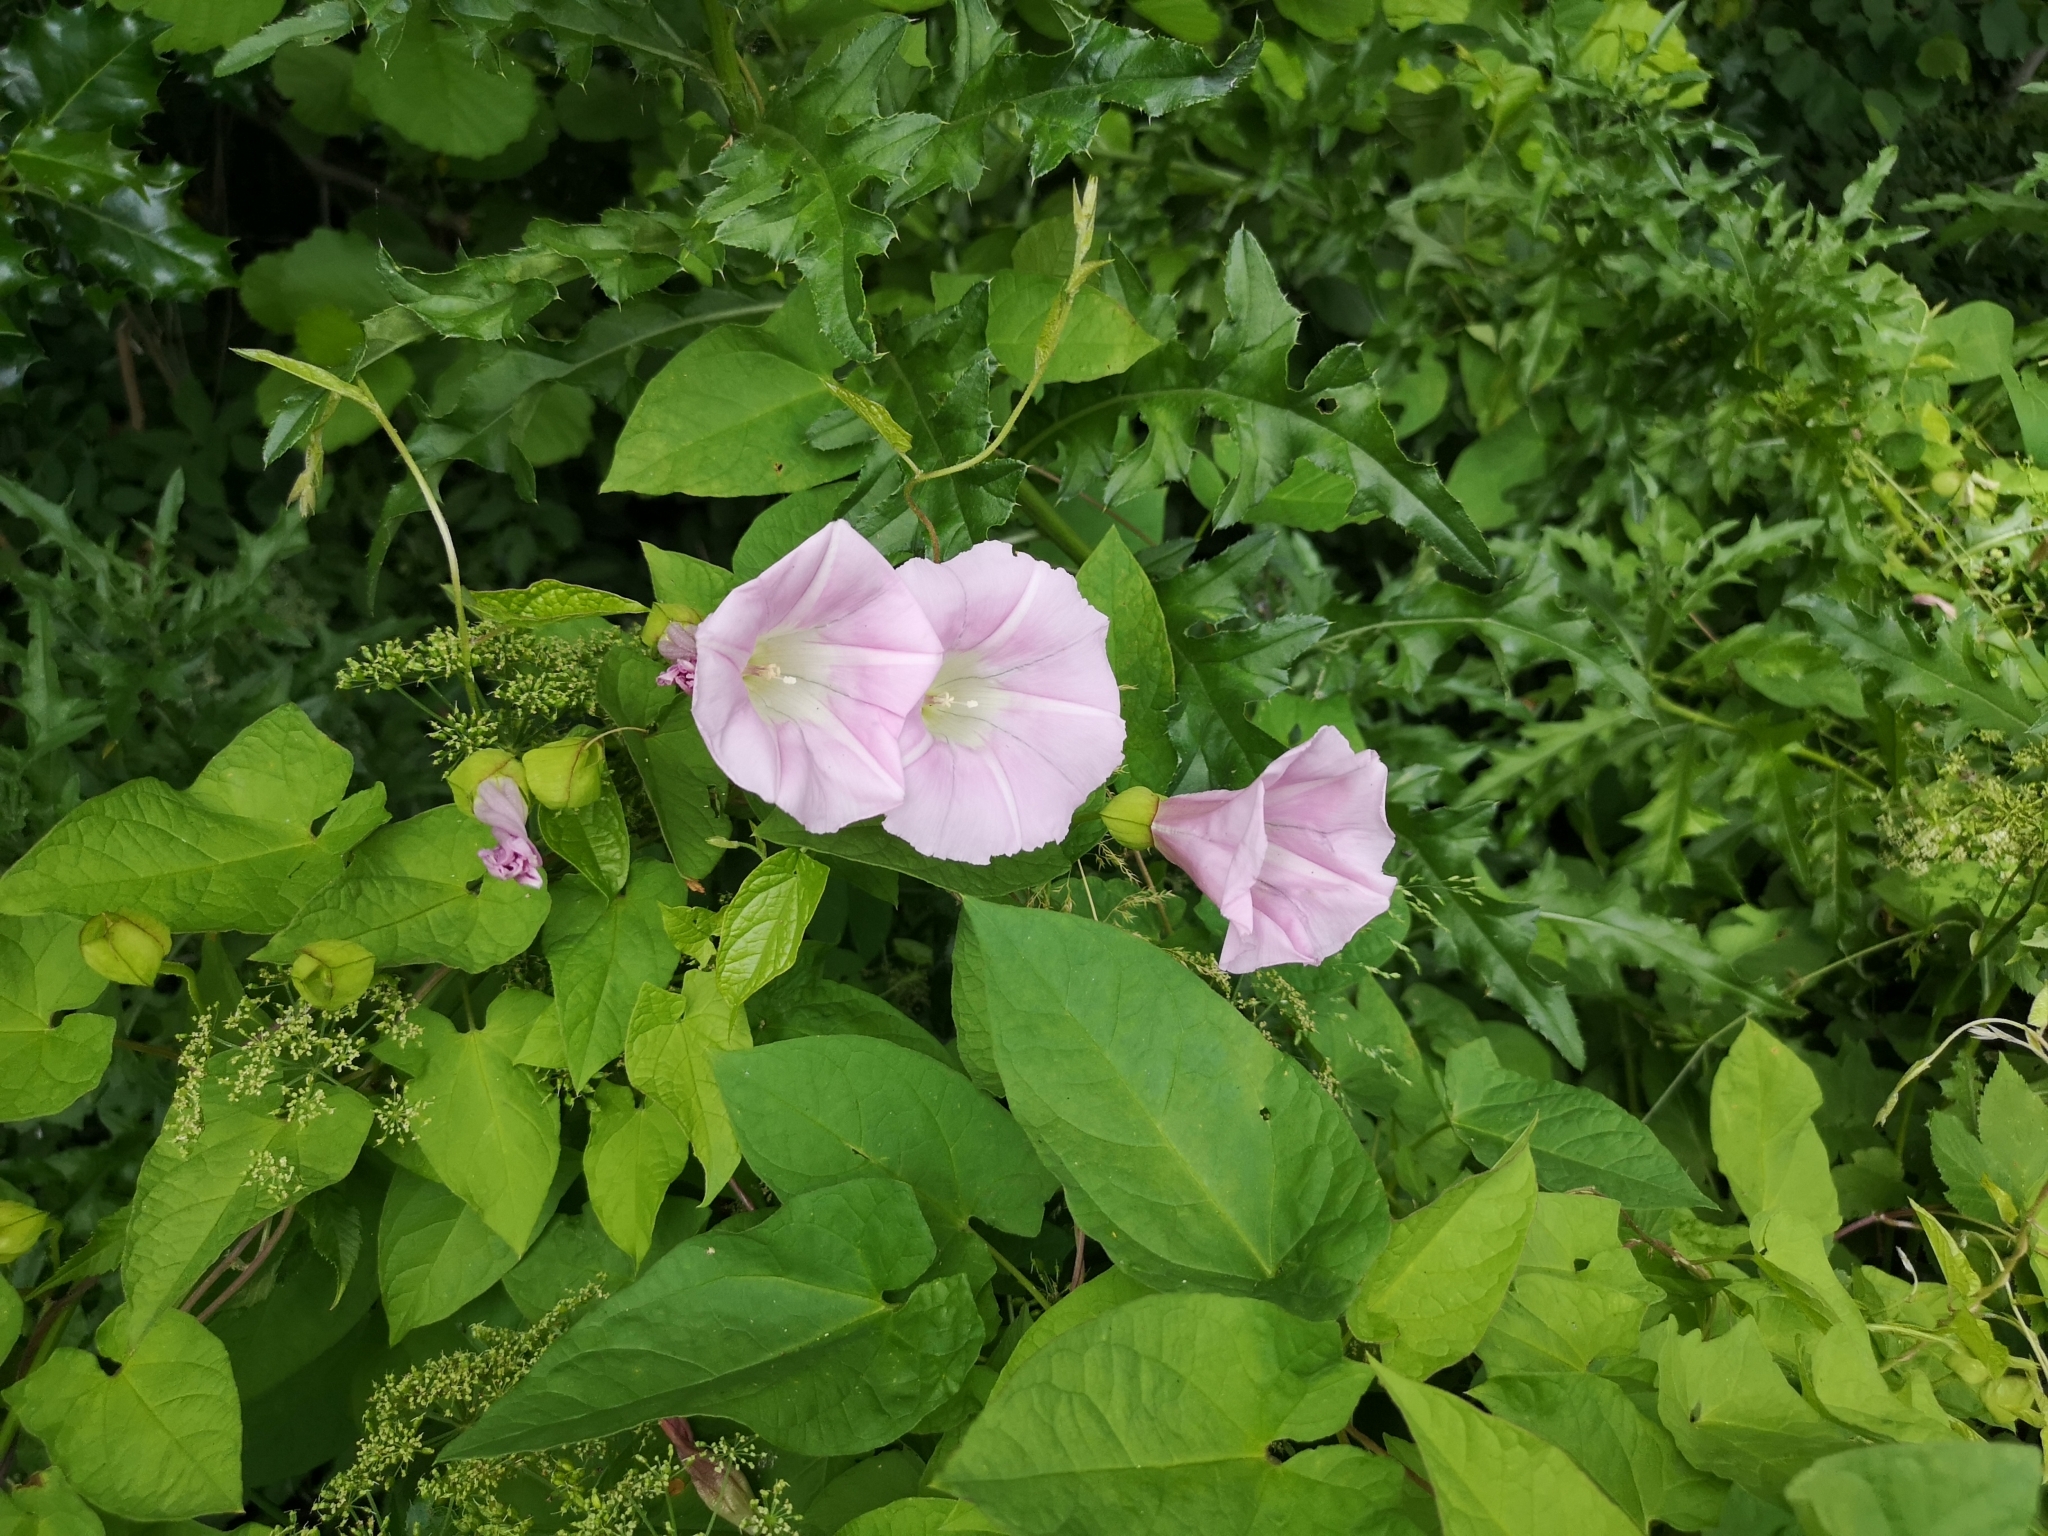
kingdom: Plantae
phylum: Tracheophyta
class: Magnoliopsida
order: Solanales
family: Convolvulaceae
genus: Calystegia
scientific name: Calystegia pulchra
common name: Hairy bindweed
